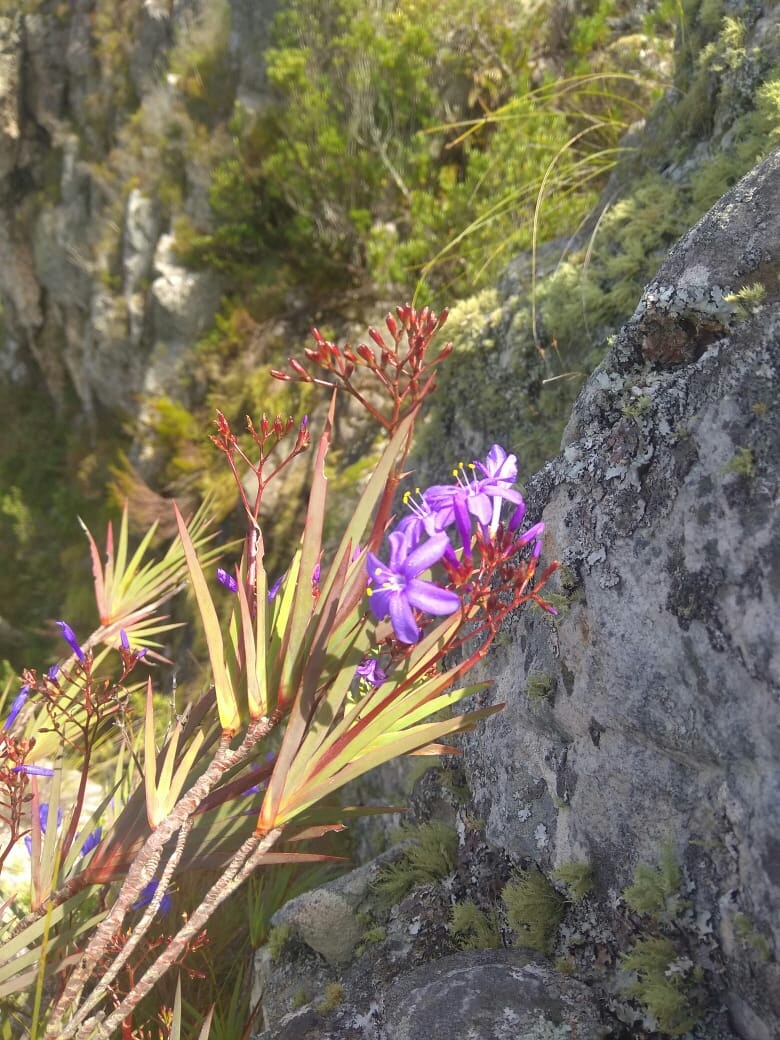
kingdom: Plantae
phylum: Tracheophyta
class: Liliopsida
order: Asparagales
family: Iridaceae
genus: Nivenia
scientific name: Nivenia dispar
